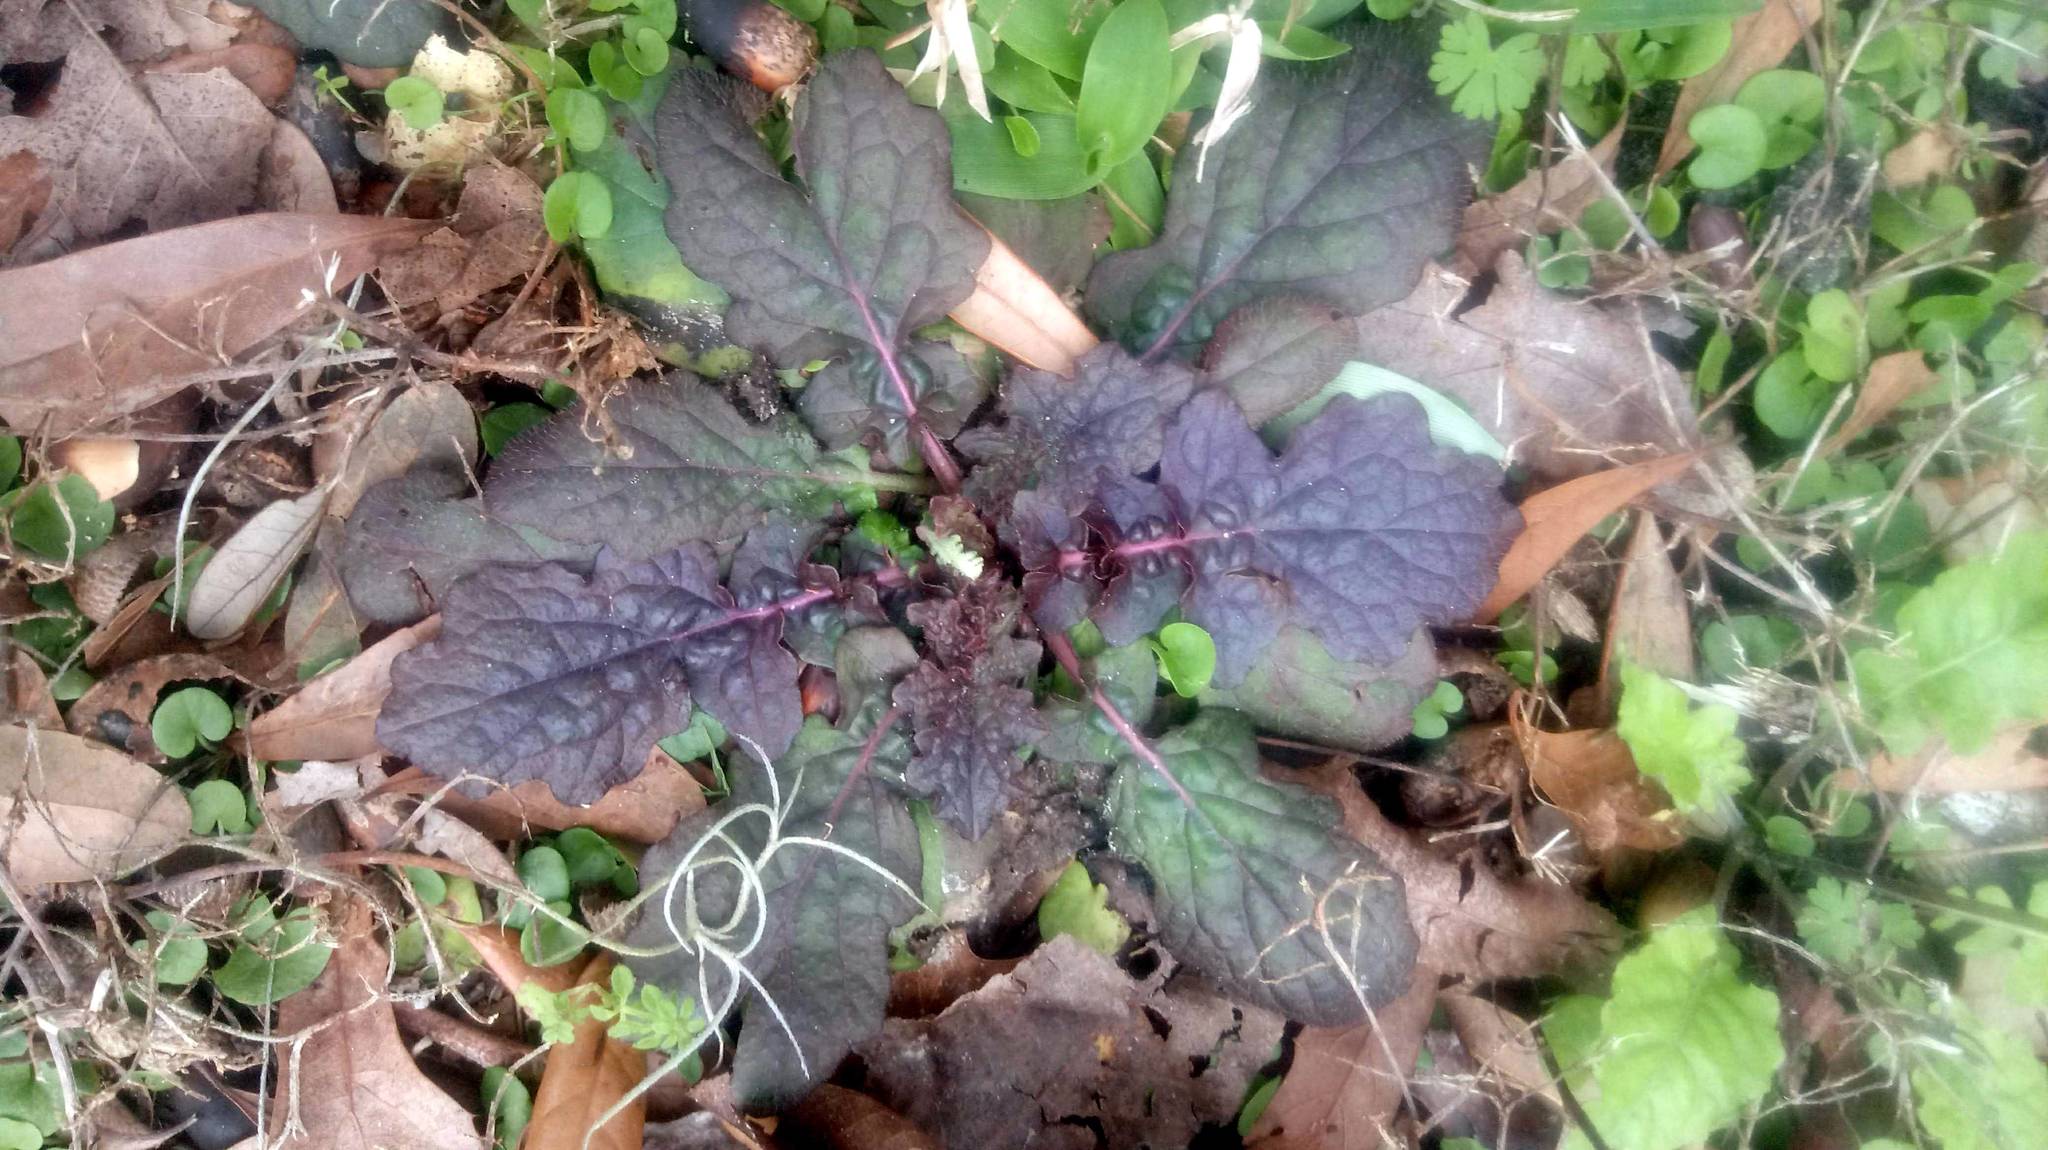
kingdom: Plantae
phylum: Tracheophyta
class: Magnoliopsida
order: Lamiales
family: Lamiaceae
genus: Salvia
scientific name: Salvia lyrata
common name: Cancerweed
